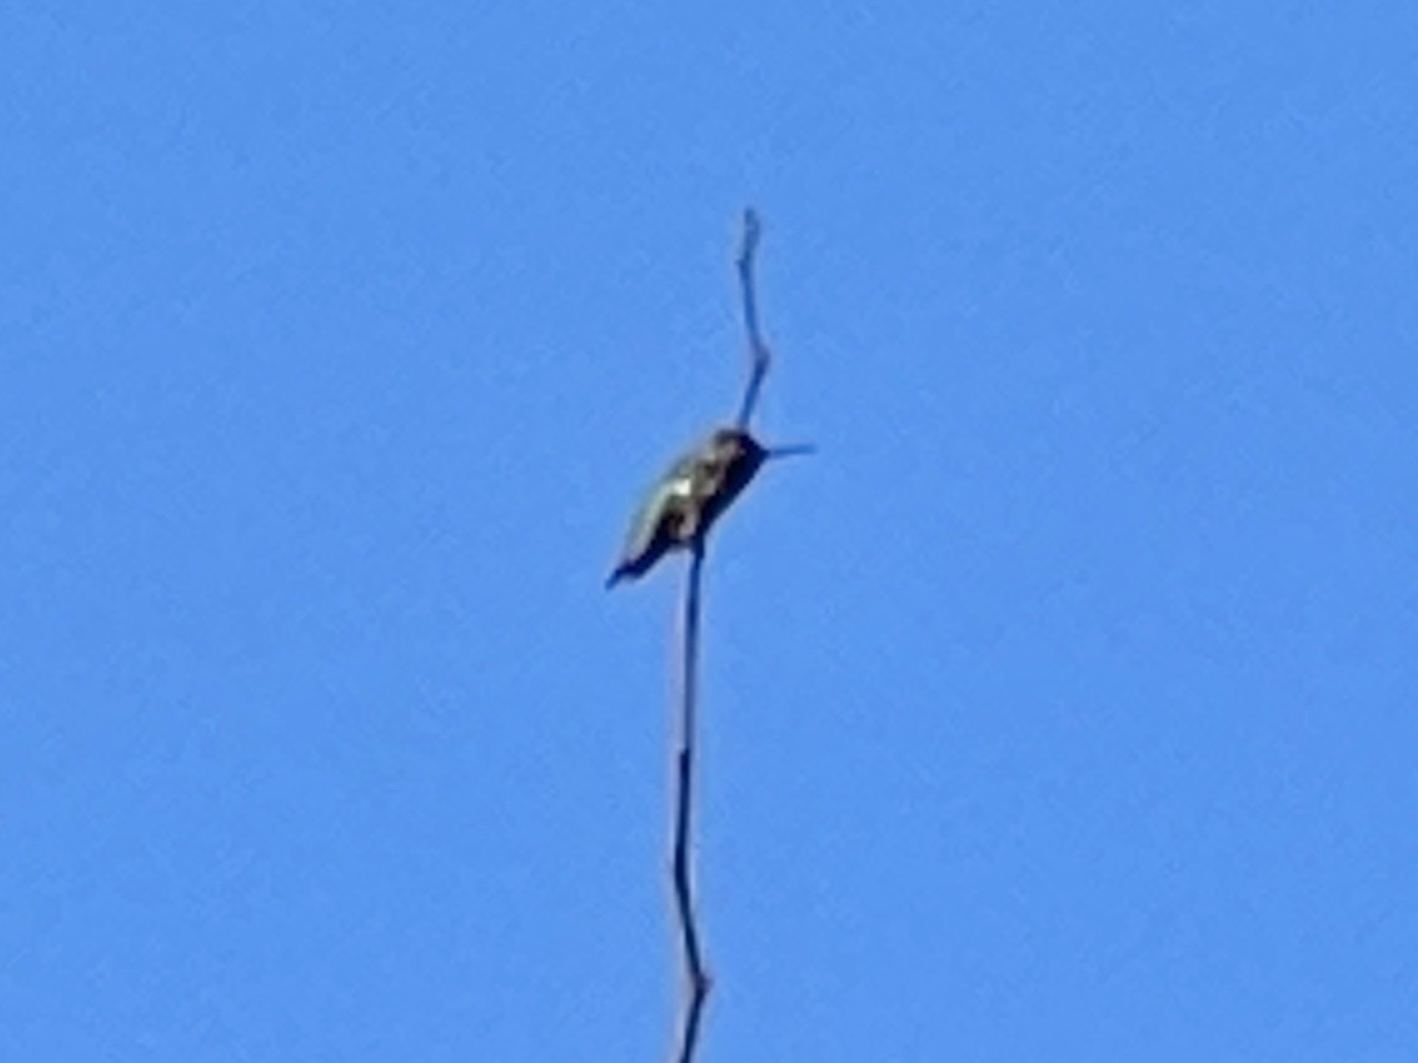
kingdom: Animalia
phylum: Chordata
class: Aves
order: Apodiformes
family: Trochilidae
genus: Calypte
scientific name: Calypte anna
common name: Anna's hummingbird
